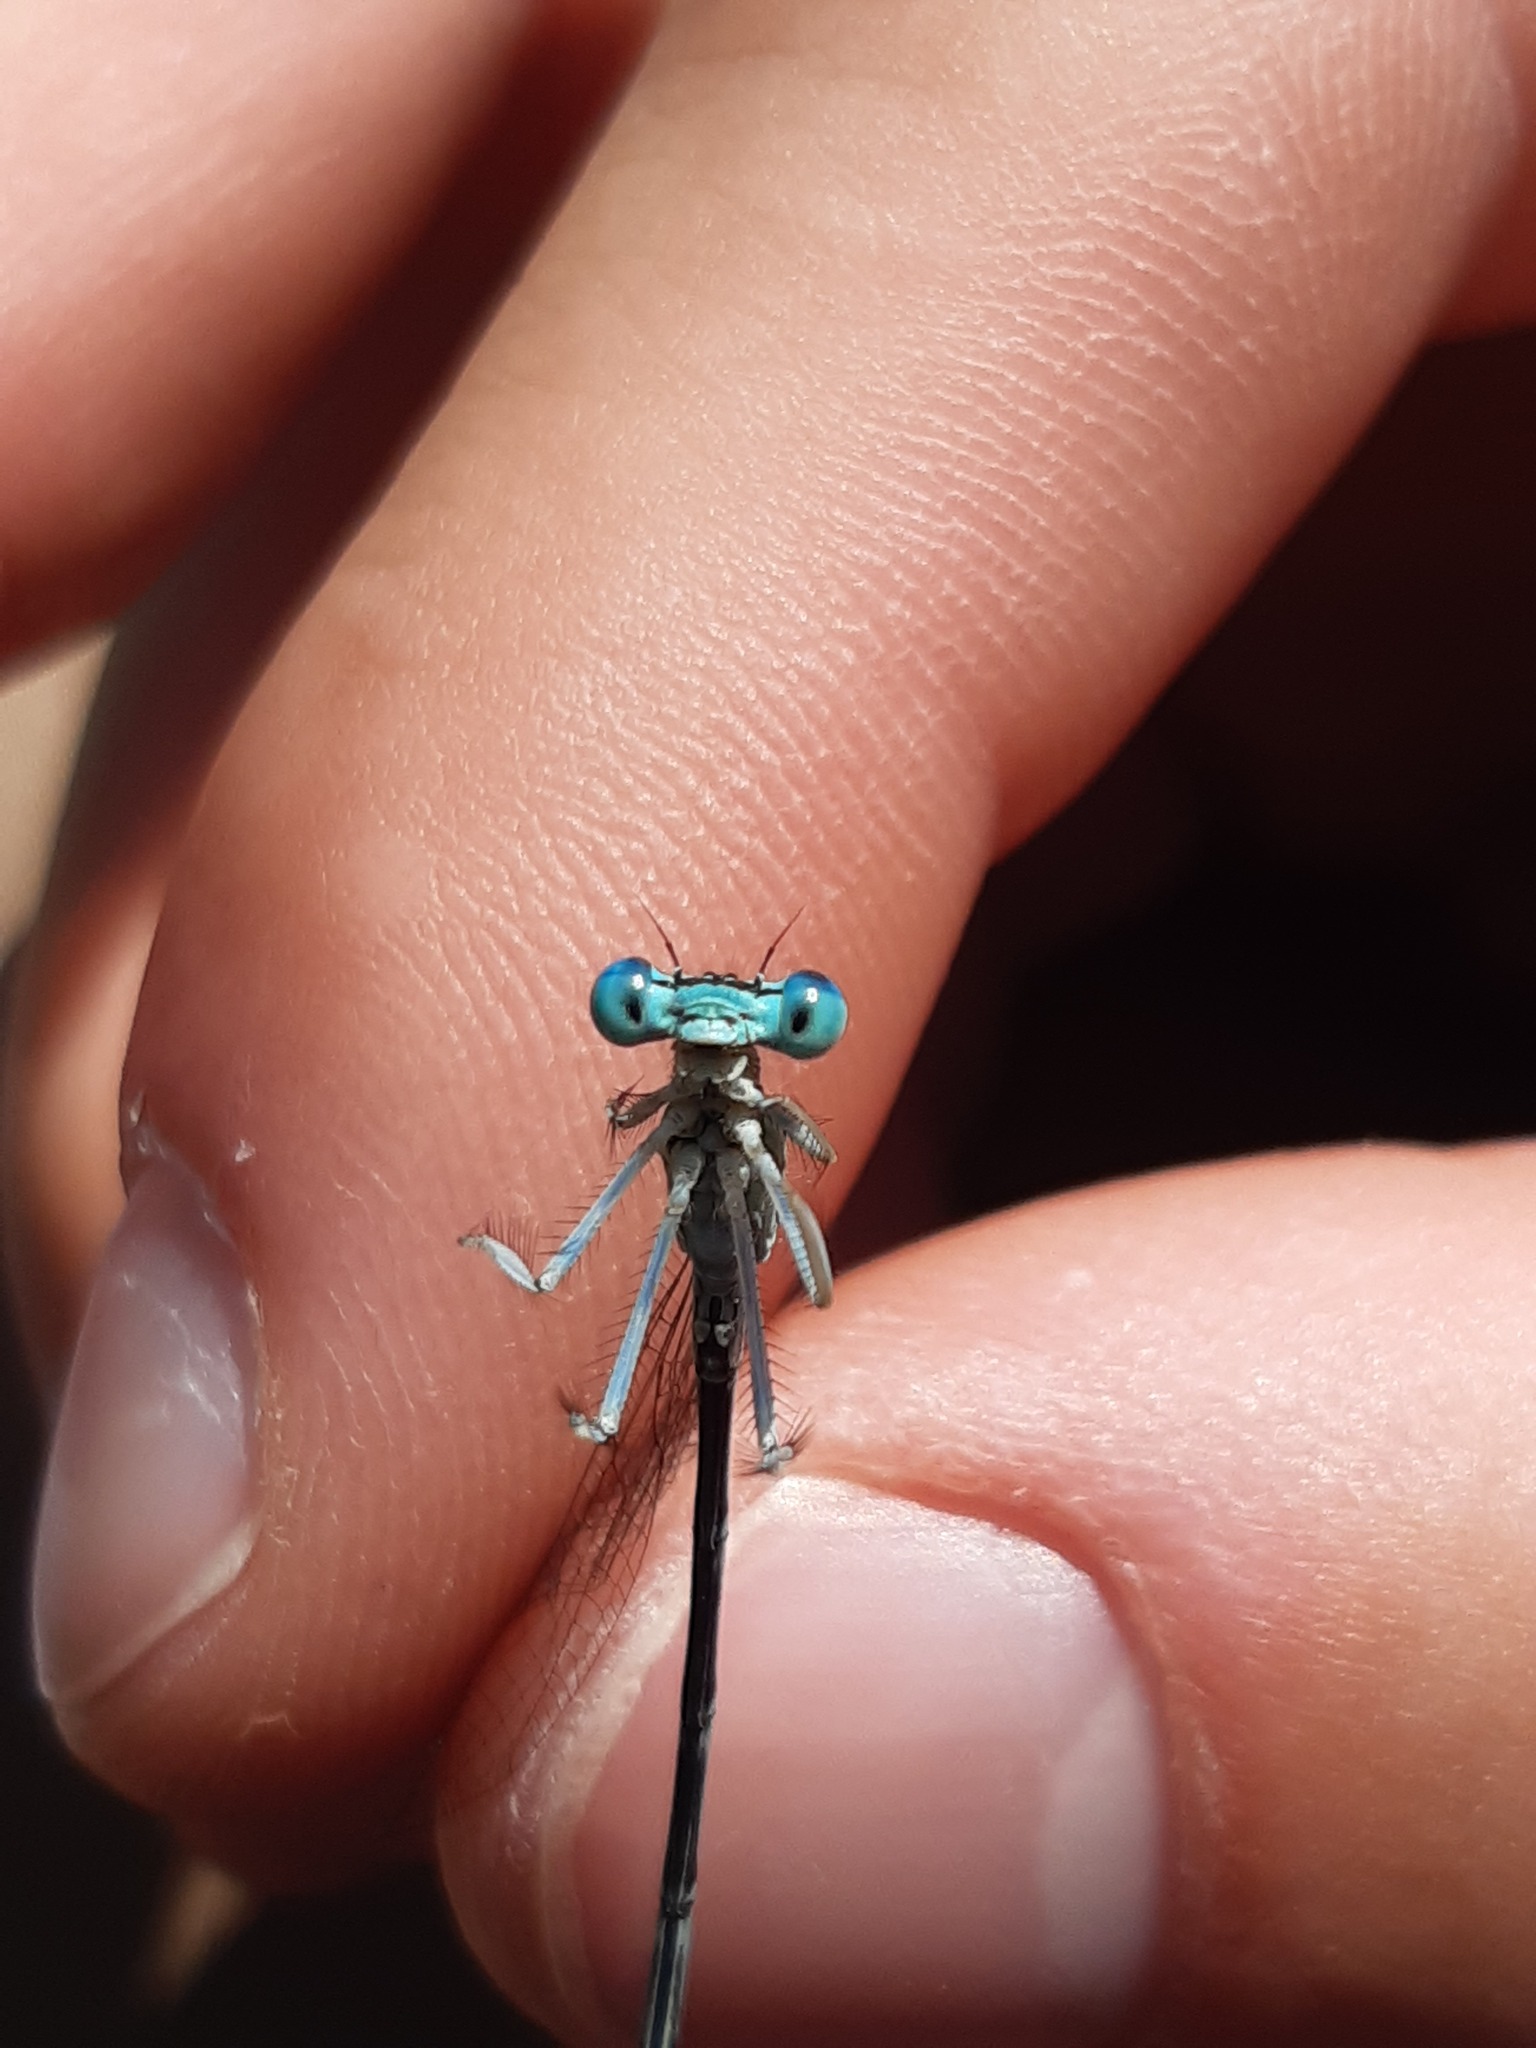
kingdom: Animalia
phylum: Arthropoda
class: Insecta
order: Odonata
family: Platycnemididae
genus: Platycnemis
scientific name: Platycnemis pennipes
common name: White-legged damselfly
